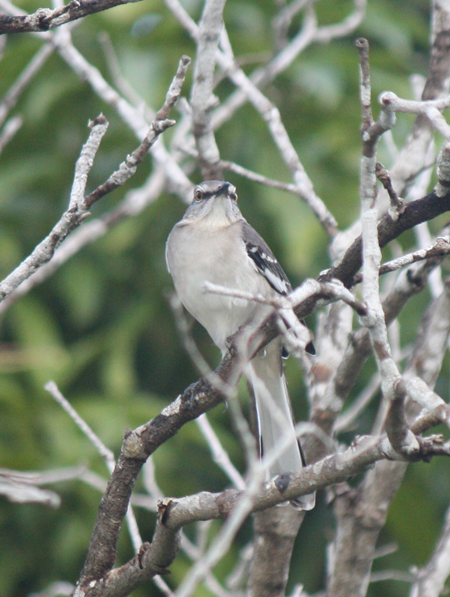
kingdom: Animalia
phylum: Chordata
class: Aves
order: Passeriformes
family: Mimidae
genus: Mimus
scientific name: Mimus polyglottos
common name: Northern mockingbird
